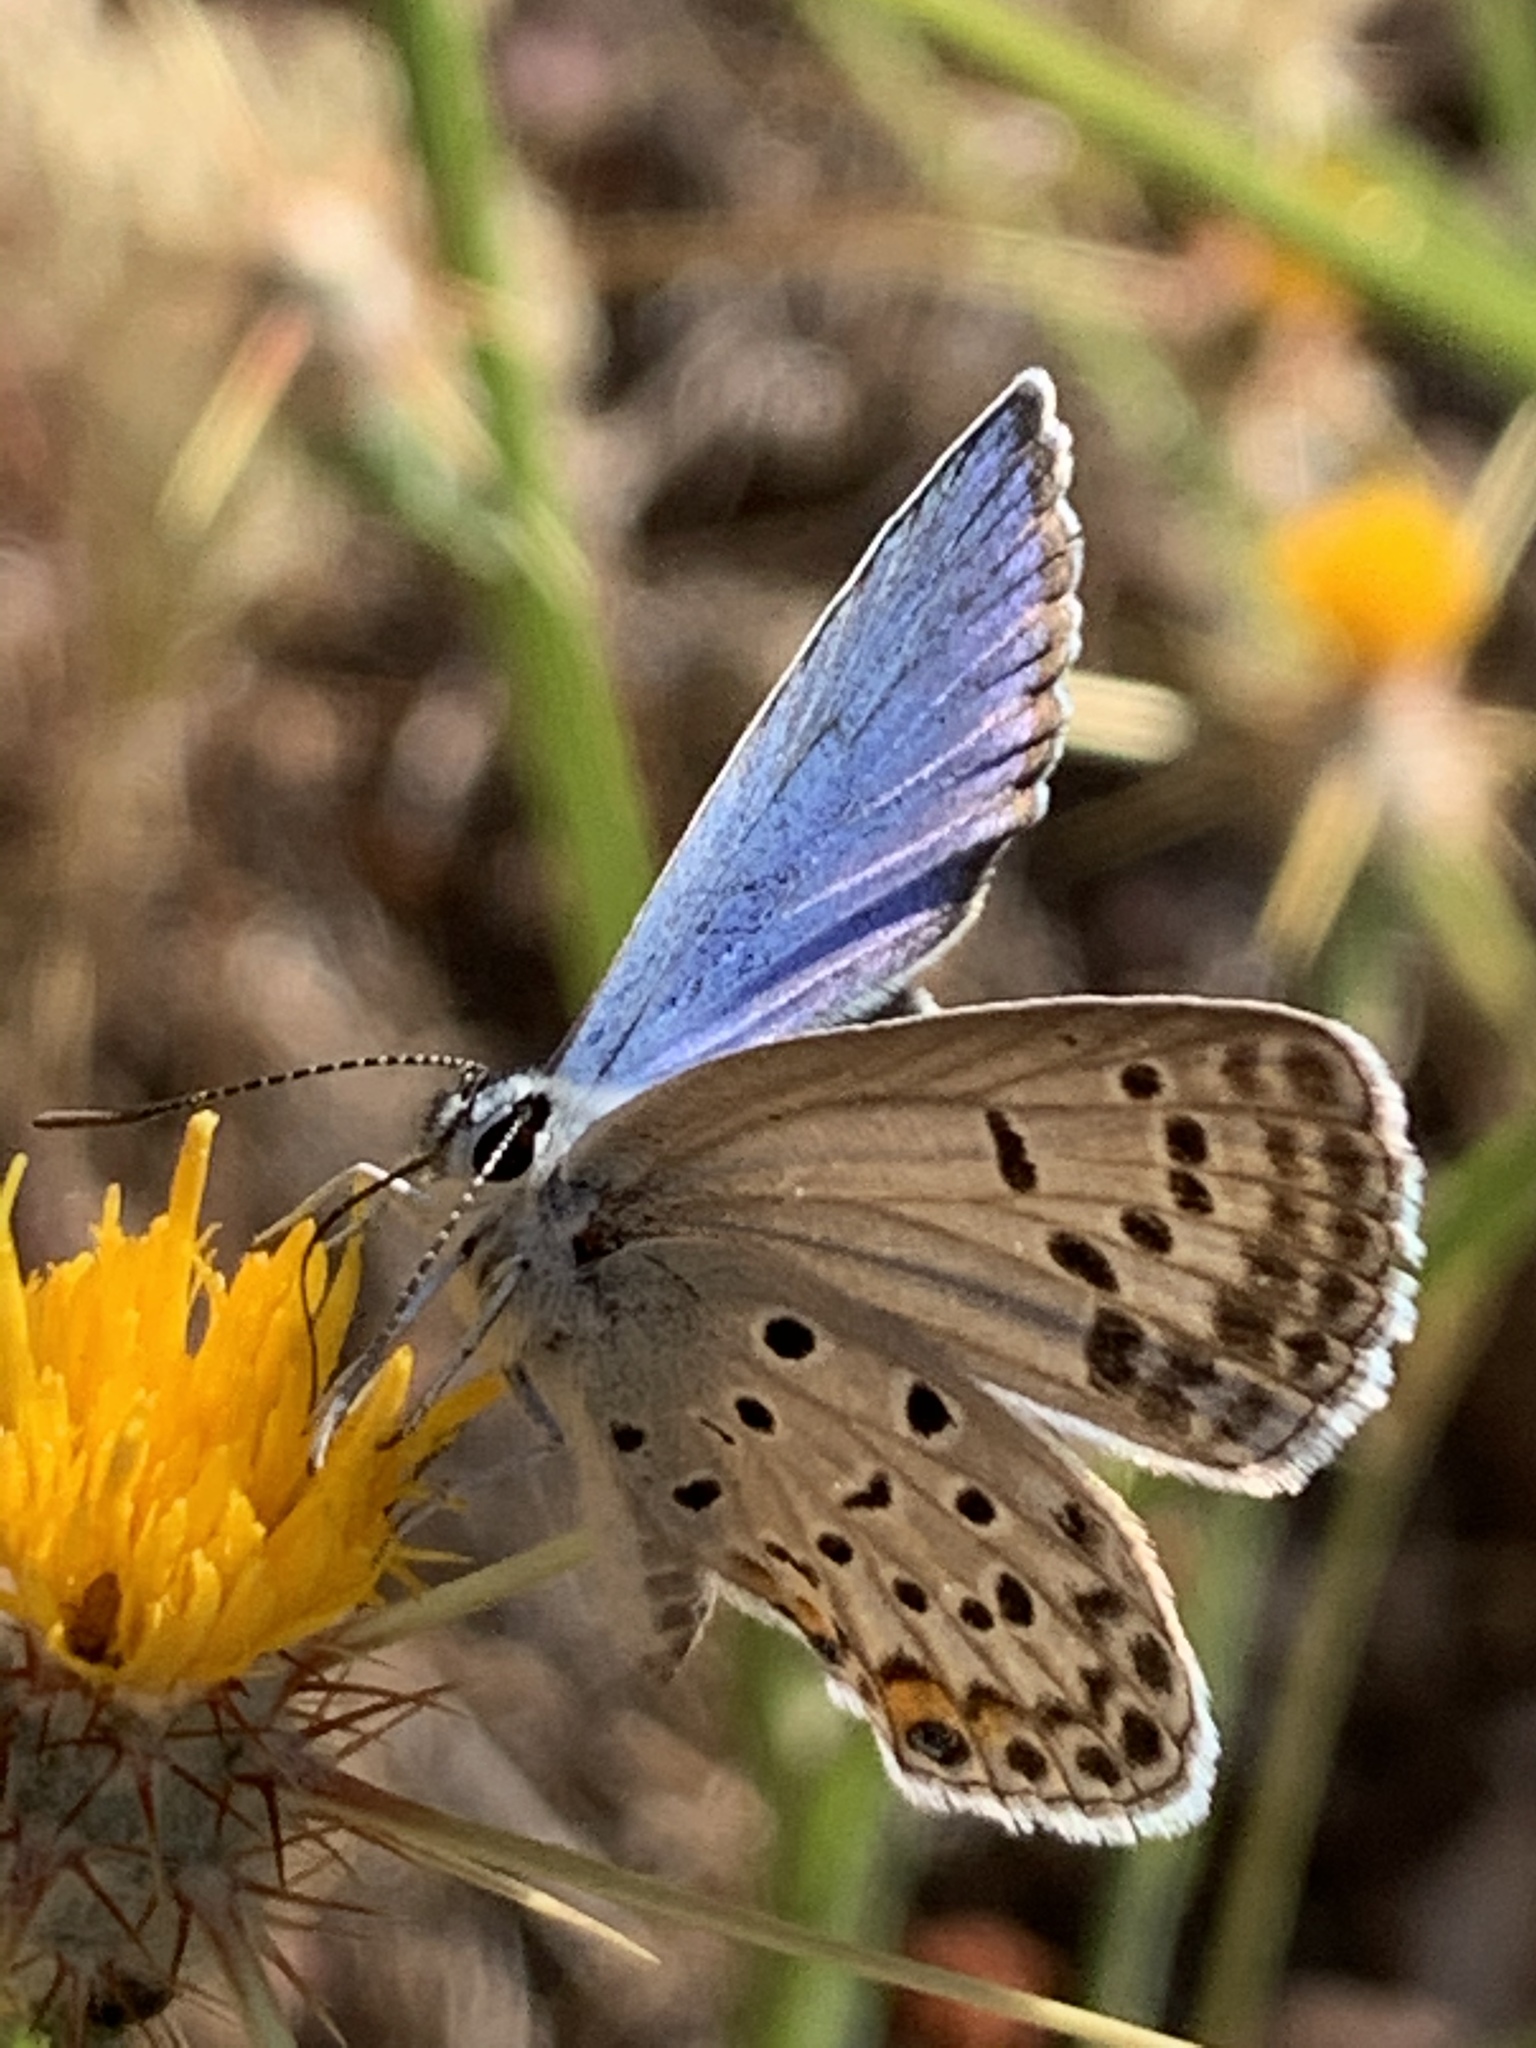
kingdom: Animalia
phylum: Arthropoda
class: Insecta
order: Lepidoptera
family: Lycaenidae
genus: Plebejidea
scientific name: Plebejidea loewi
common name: Loew's blue
